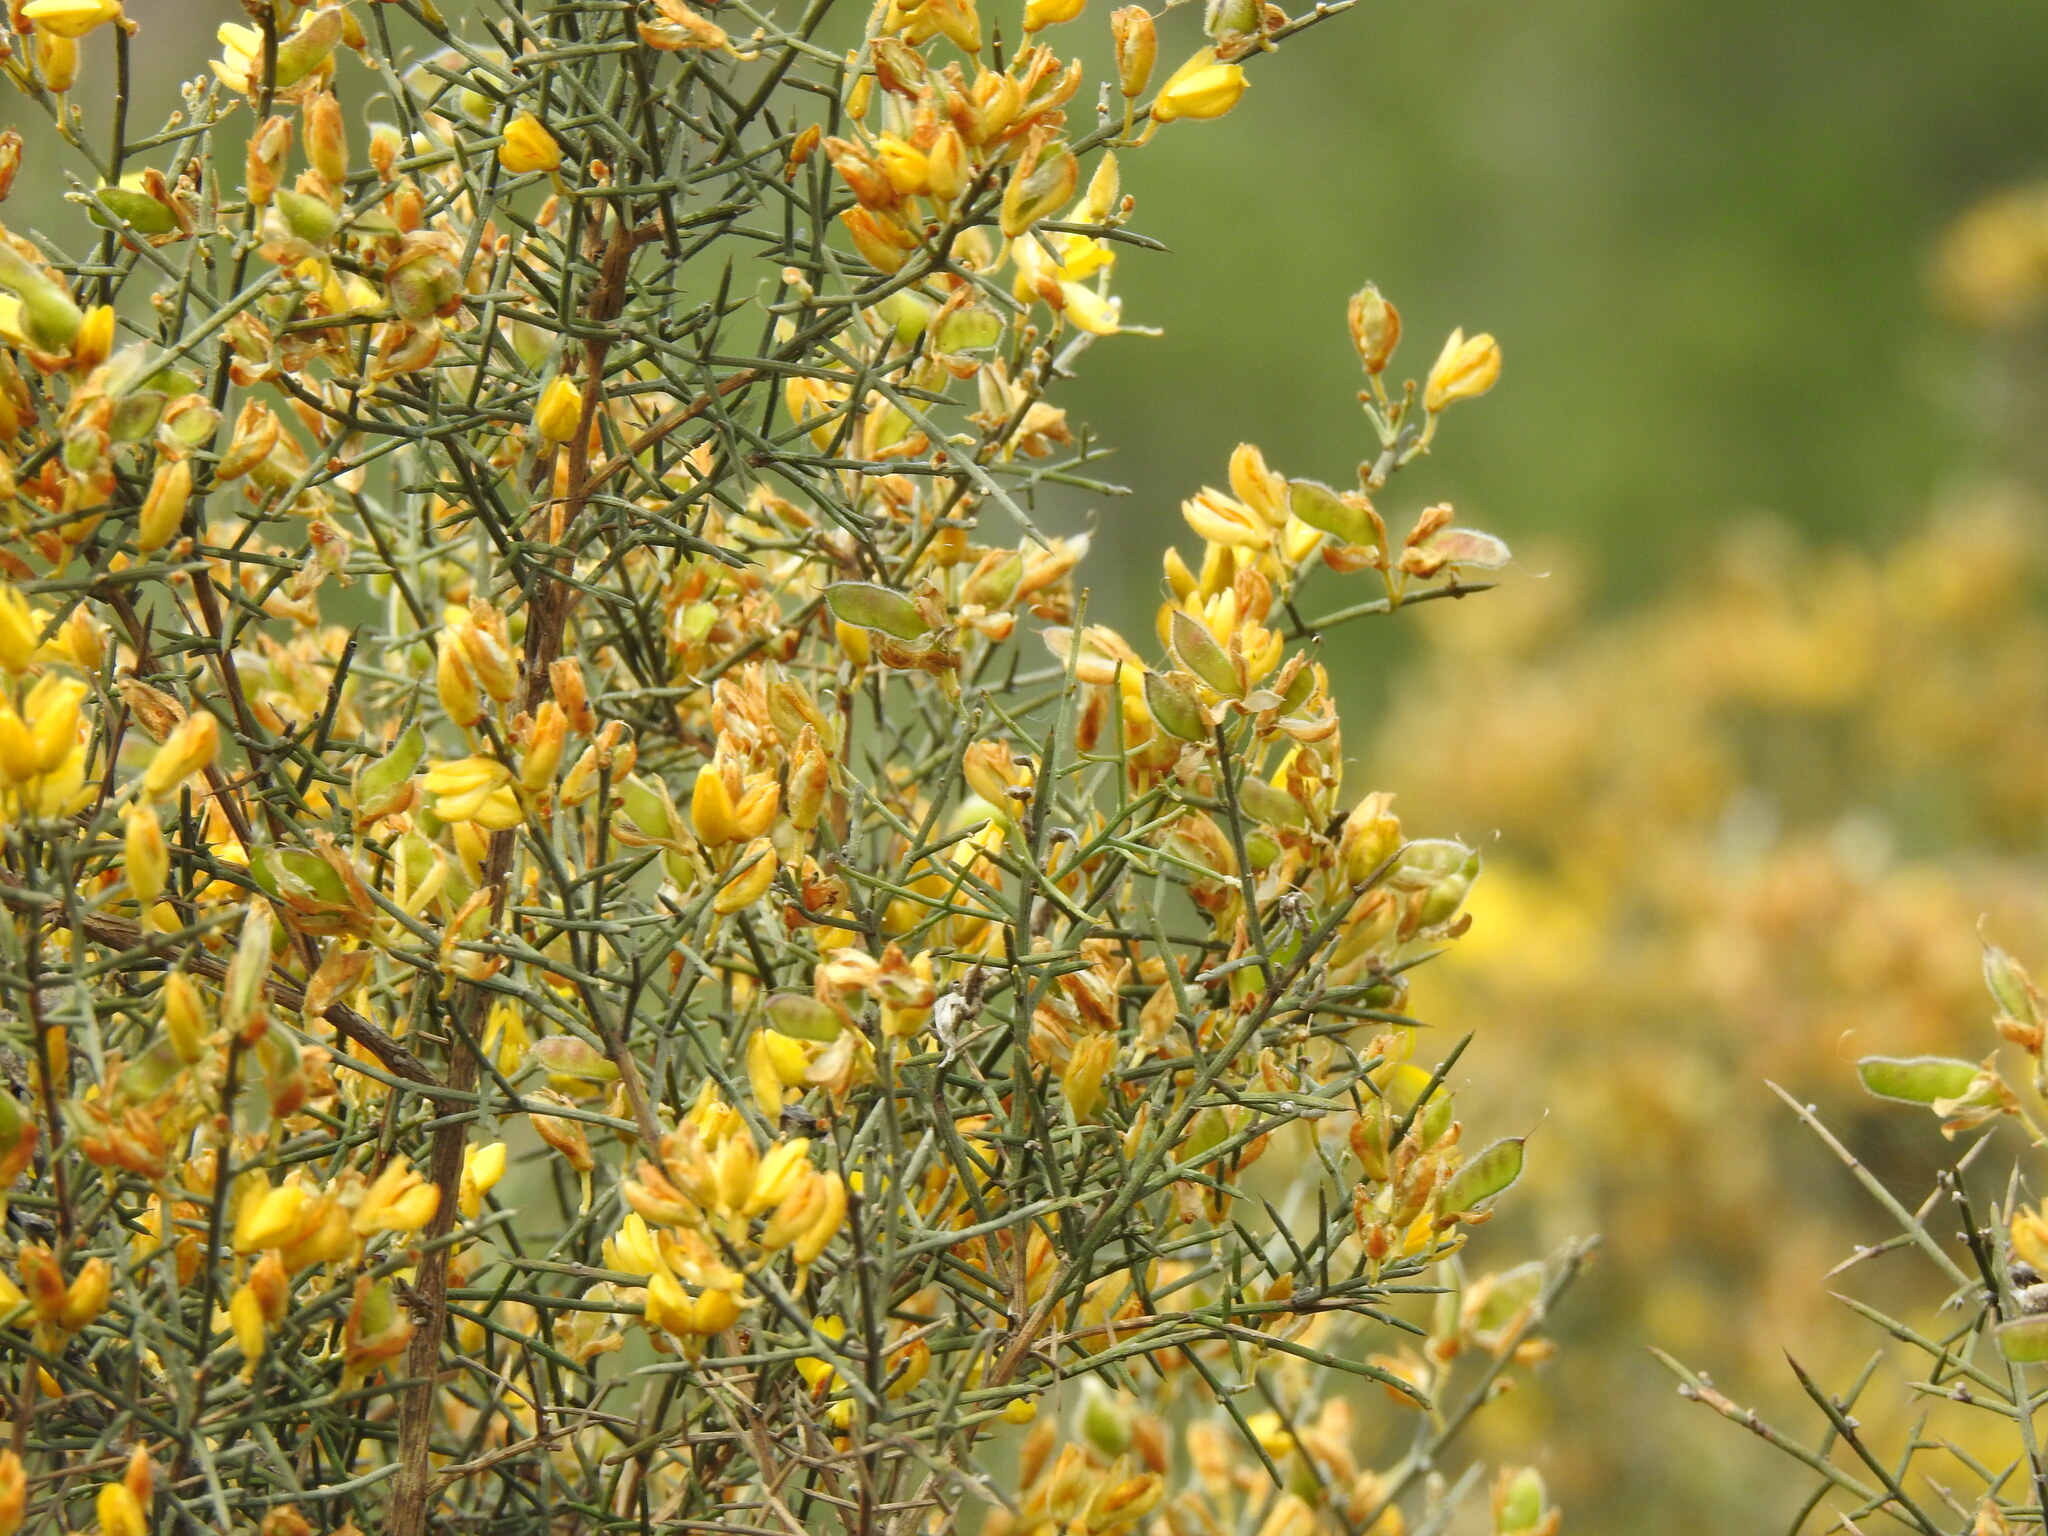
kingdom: Plantae
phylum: Tracheophyta
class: Magnoliopsida
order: Fabales
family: Fabaceae
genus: Stauracanthus
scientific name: Stauracanthus genistoides
